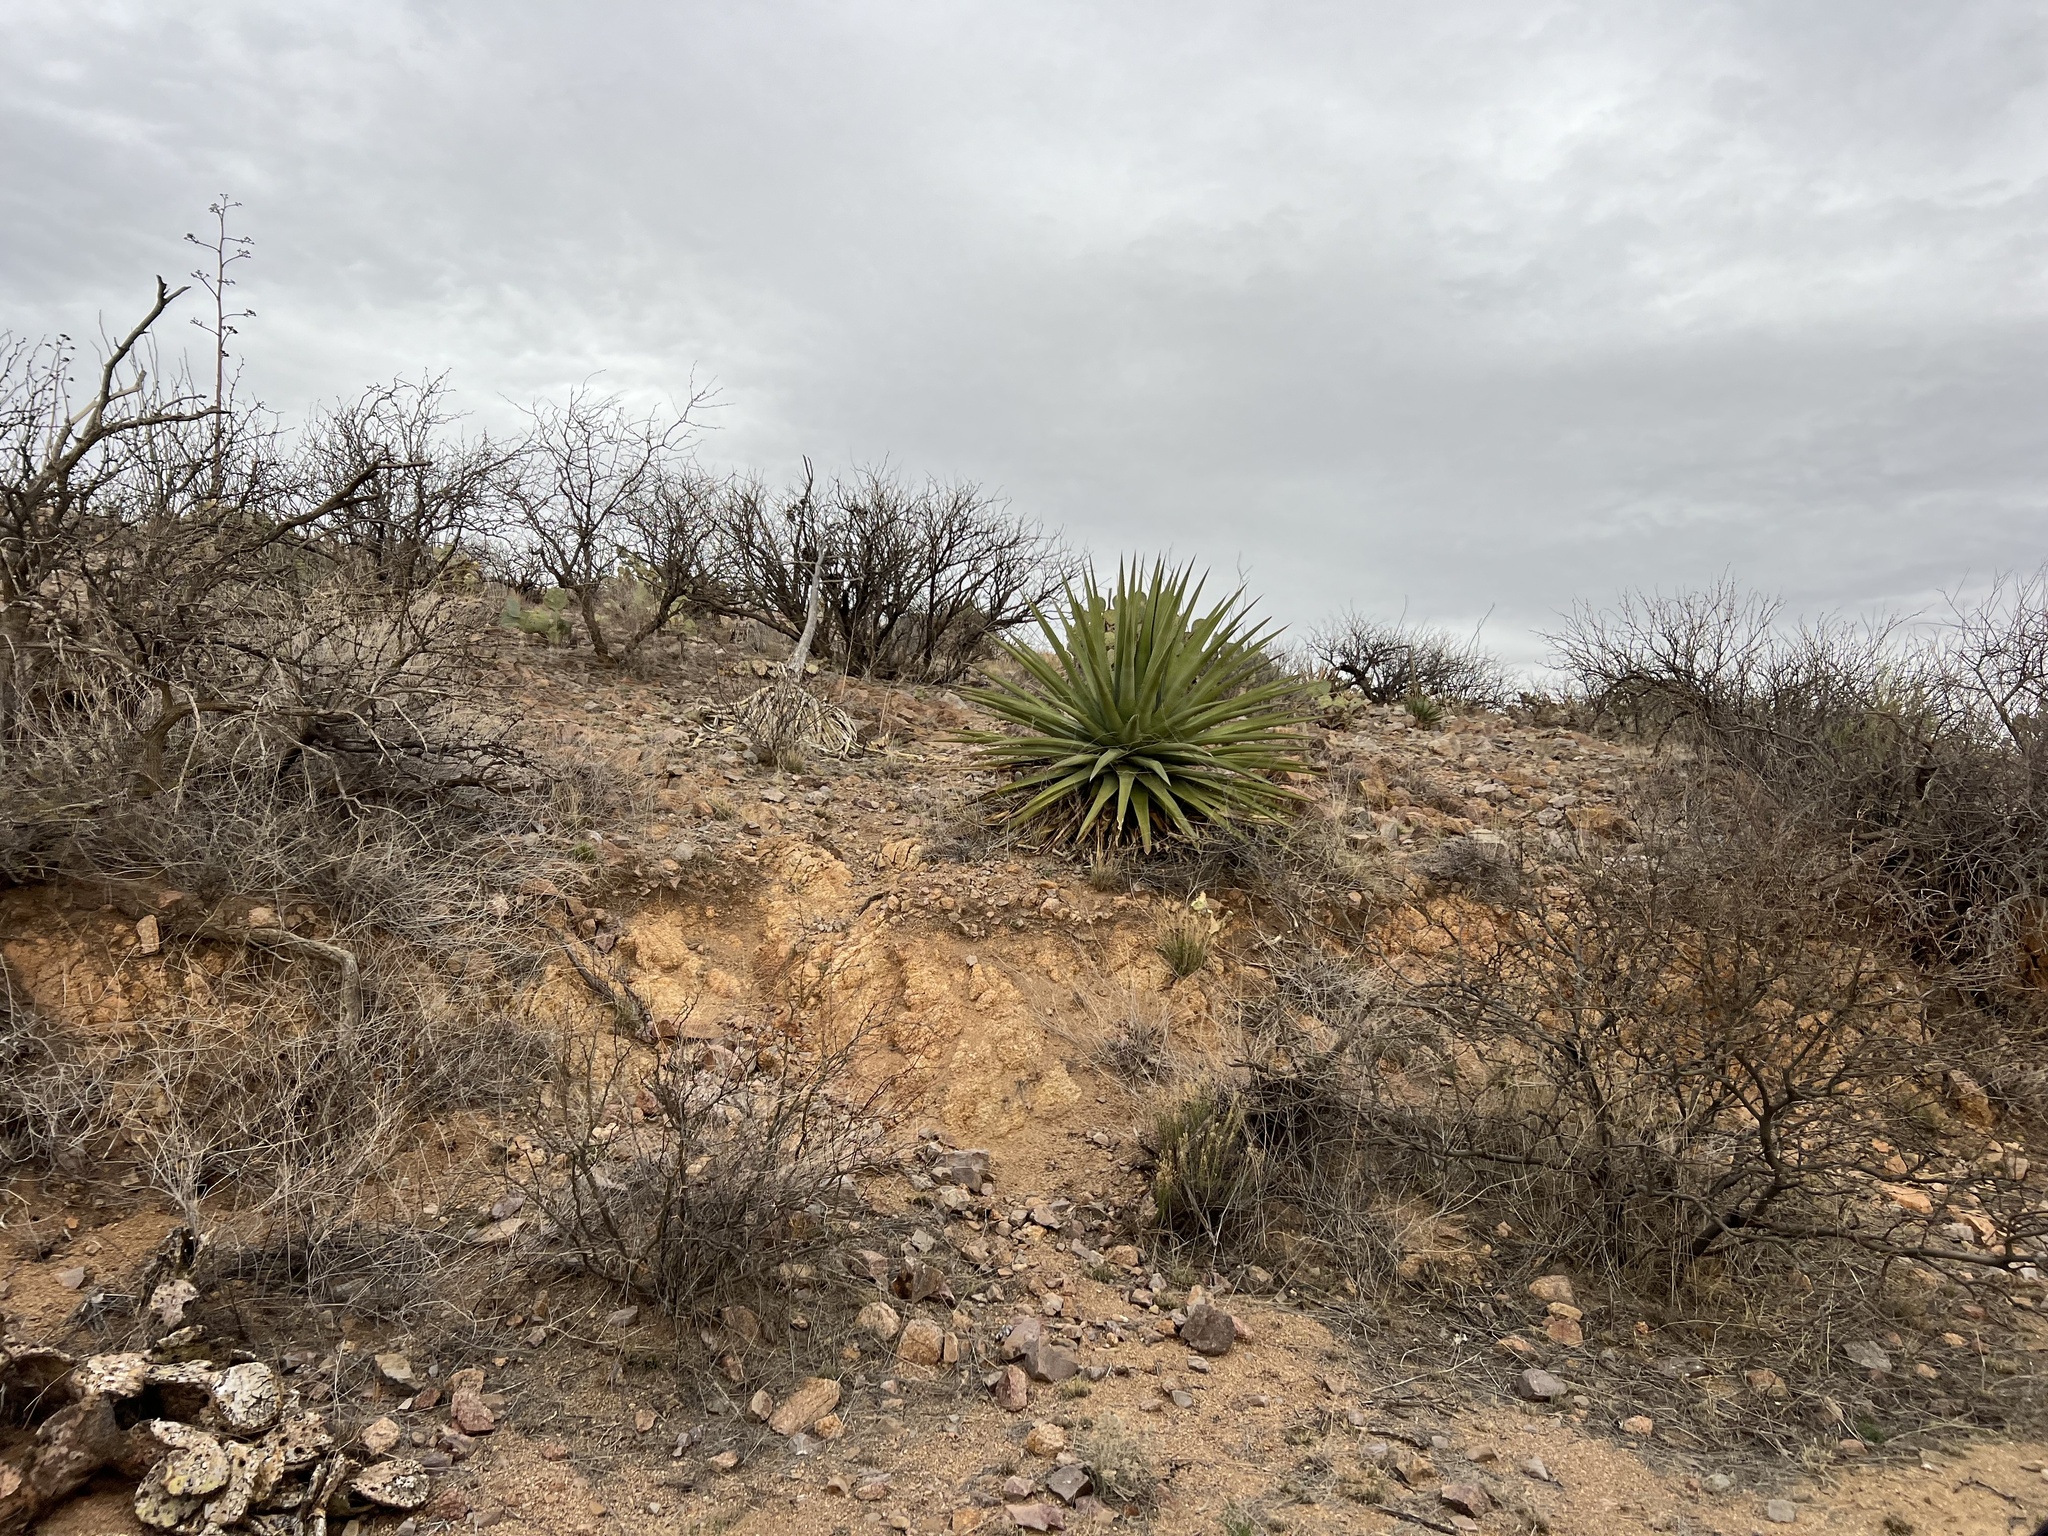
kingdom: Plantae
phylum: Tracheophyta
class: Liliopsida
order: Asparagales
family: Asparagaceae
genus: Agave
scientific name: Agave palmeri
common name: Palmer agave
